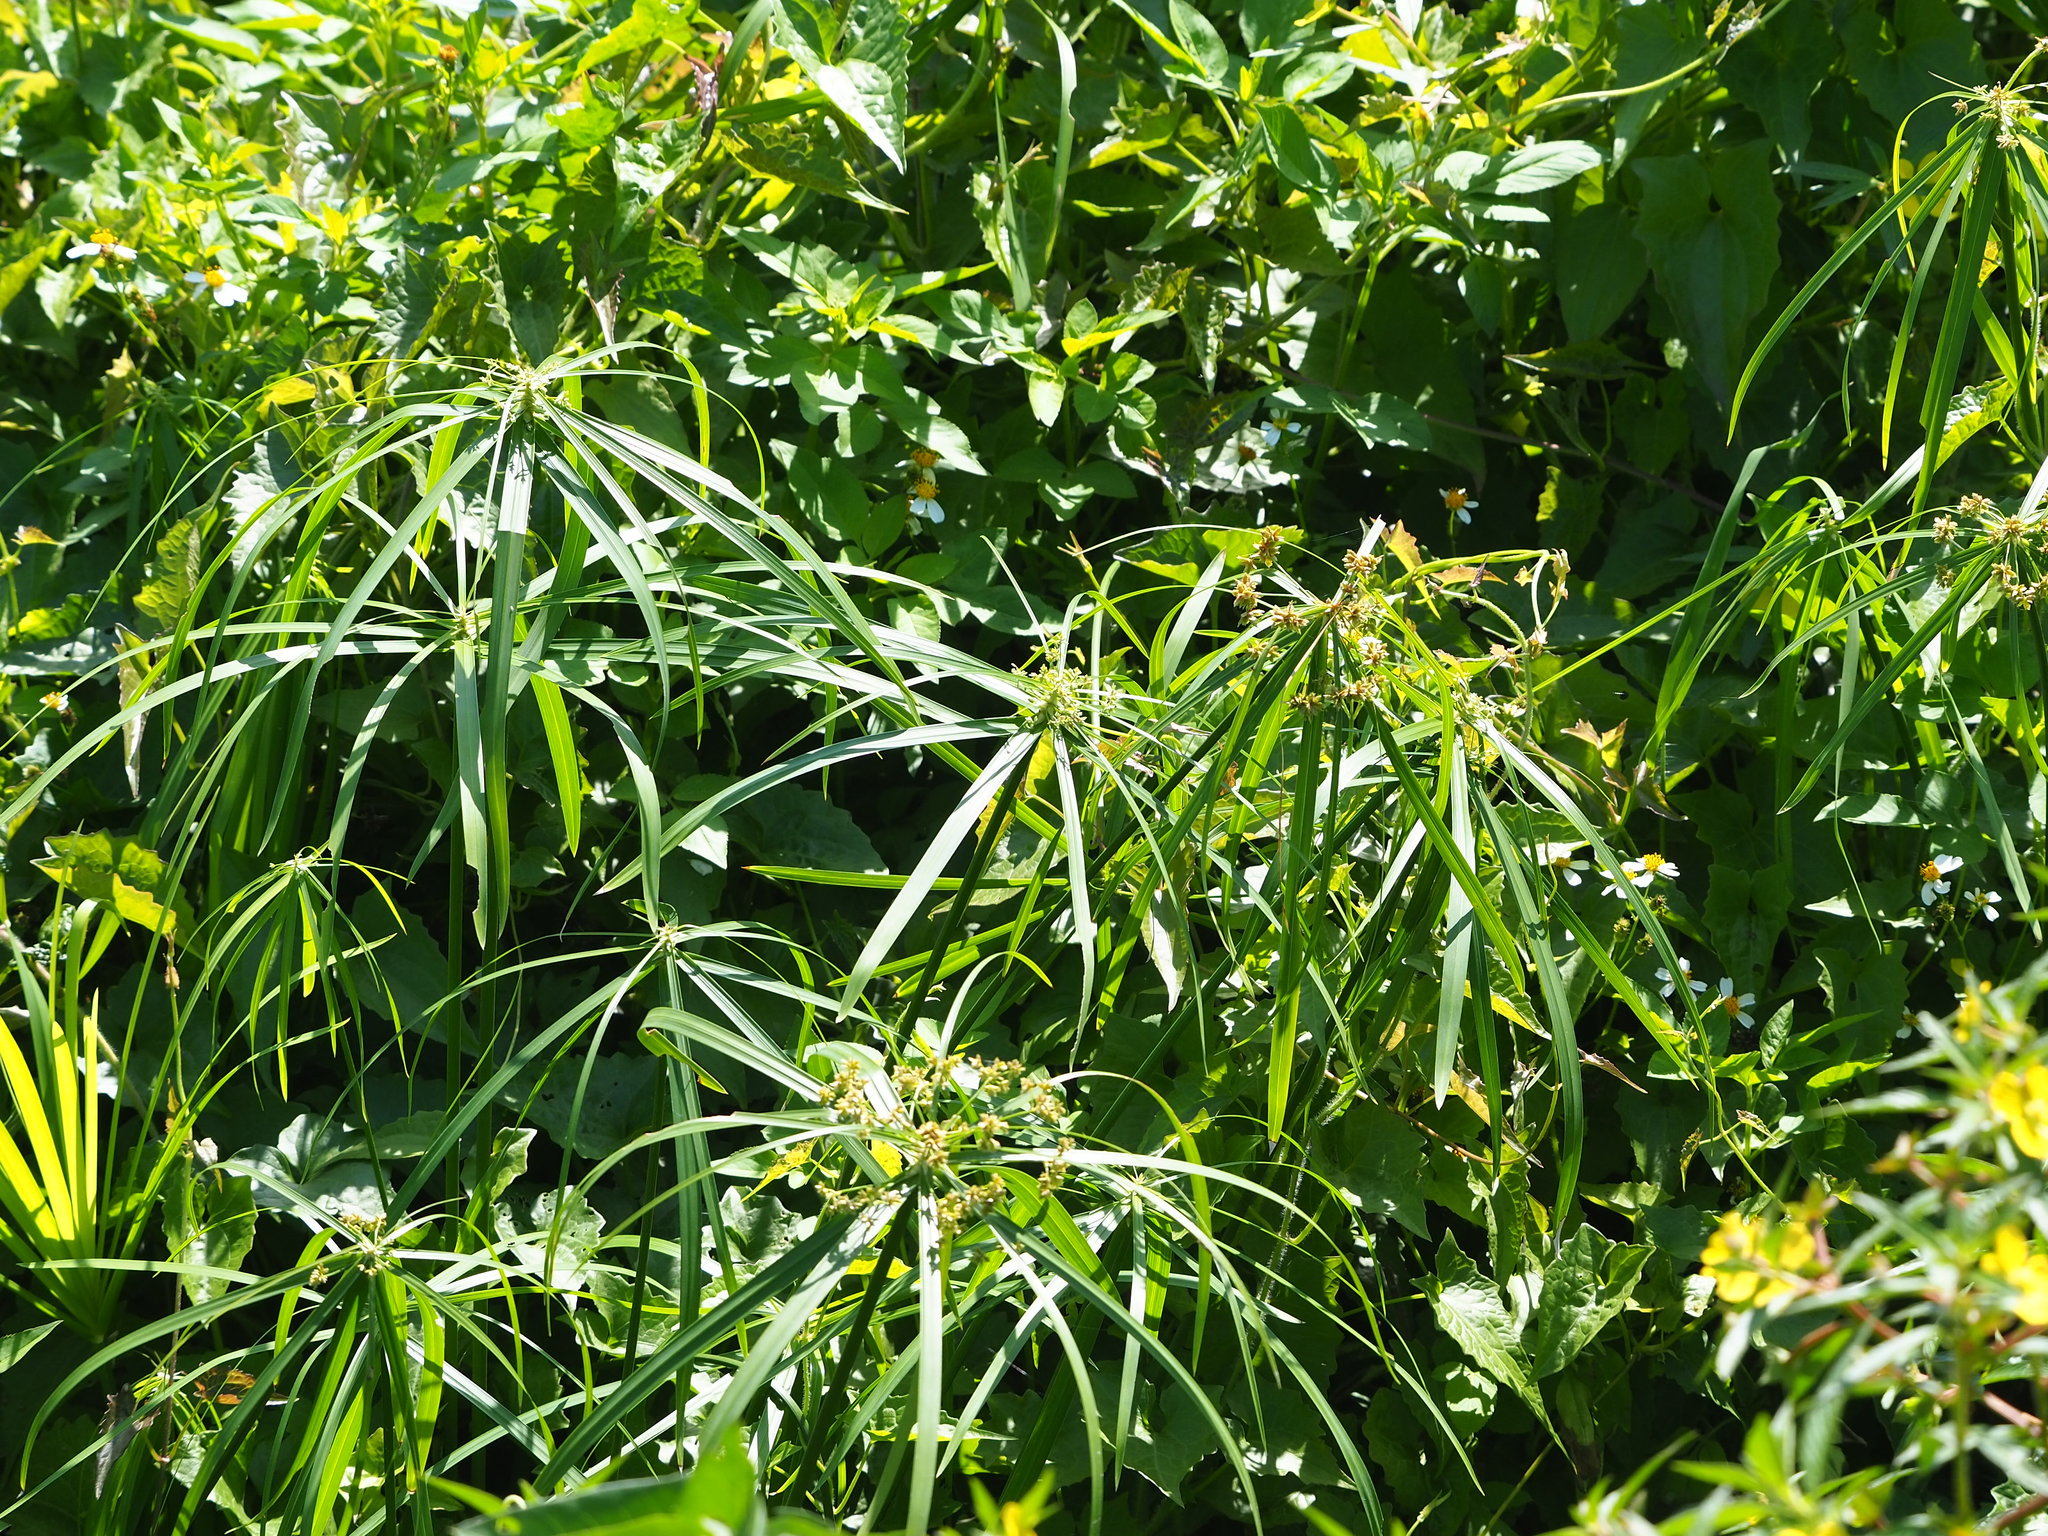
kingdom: Plantae
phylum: Tracheophyta
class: Liliopsida
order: Poales
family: Cyperaceae
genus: Cyperus
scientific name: Cyperus alternifolius
